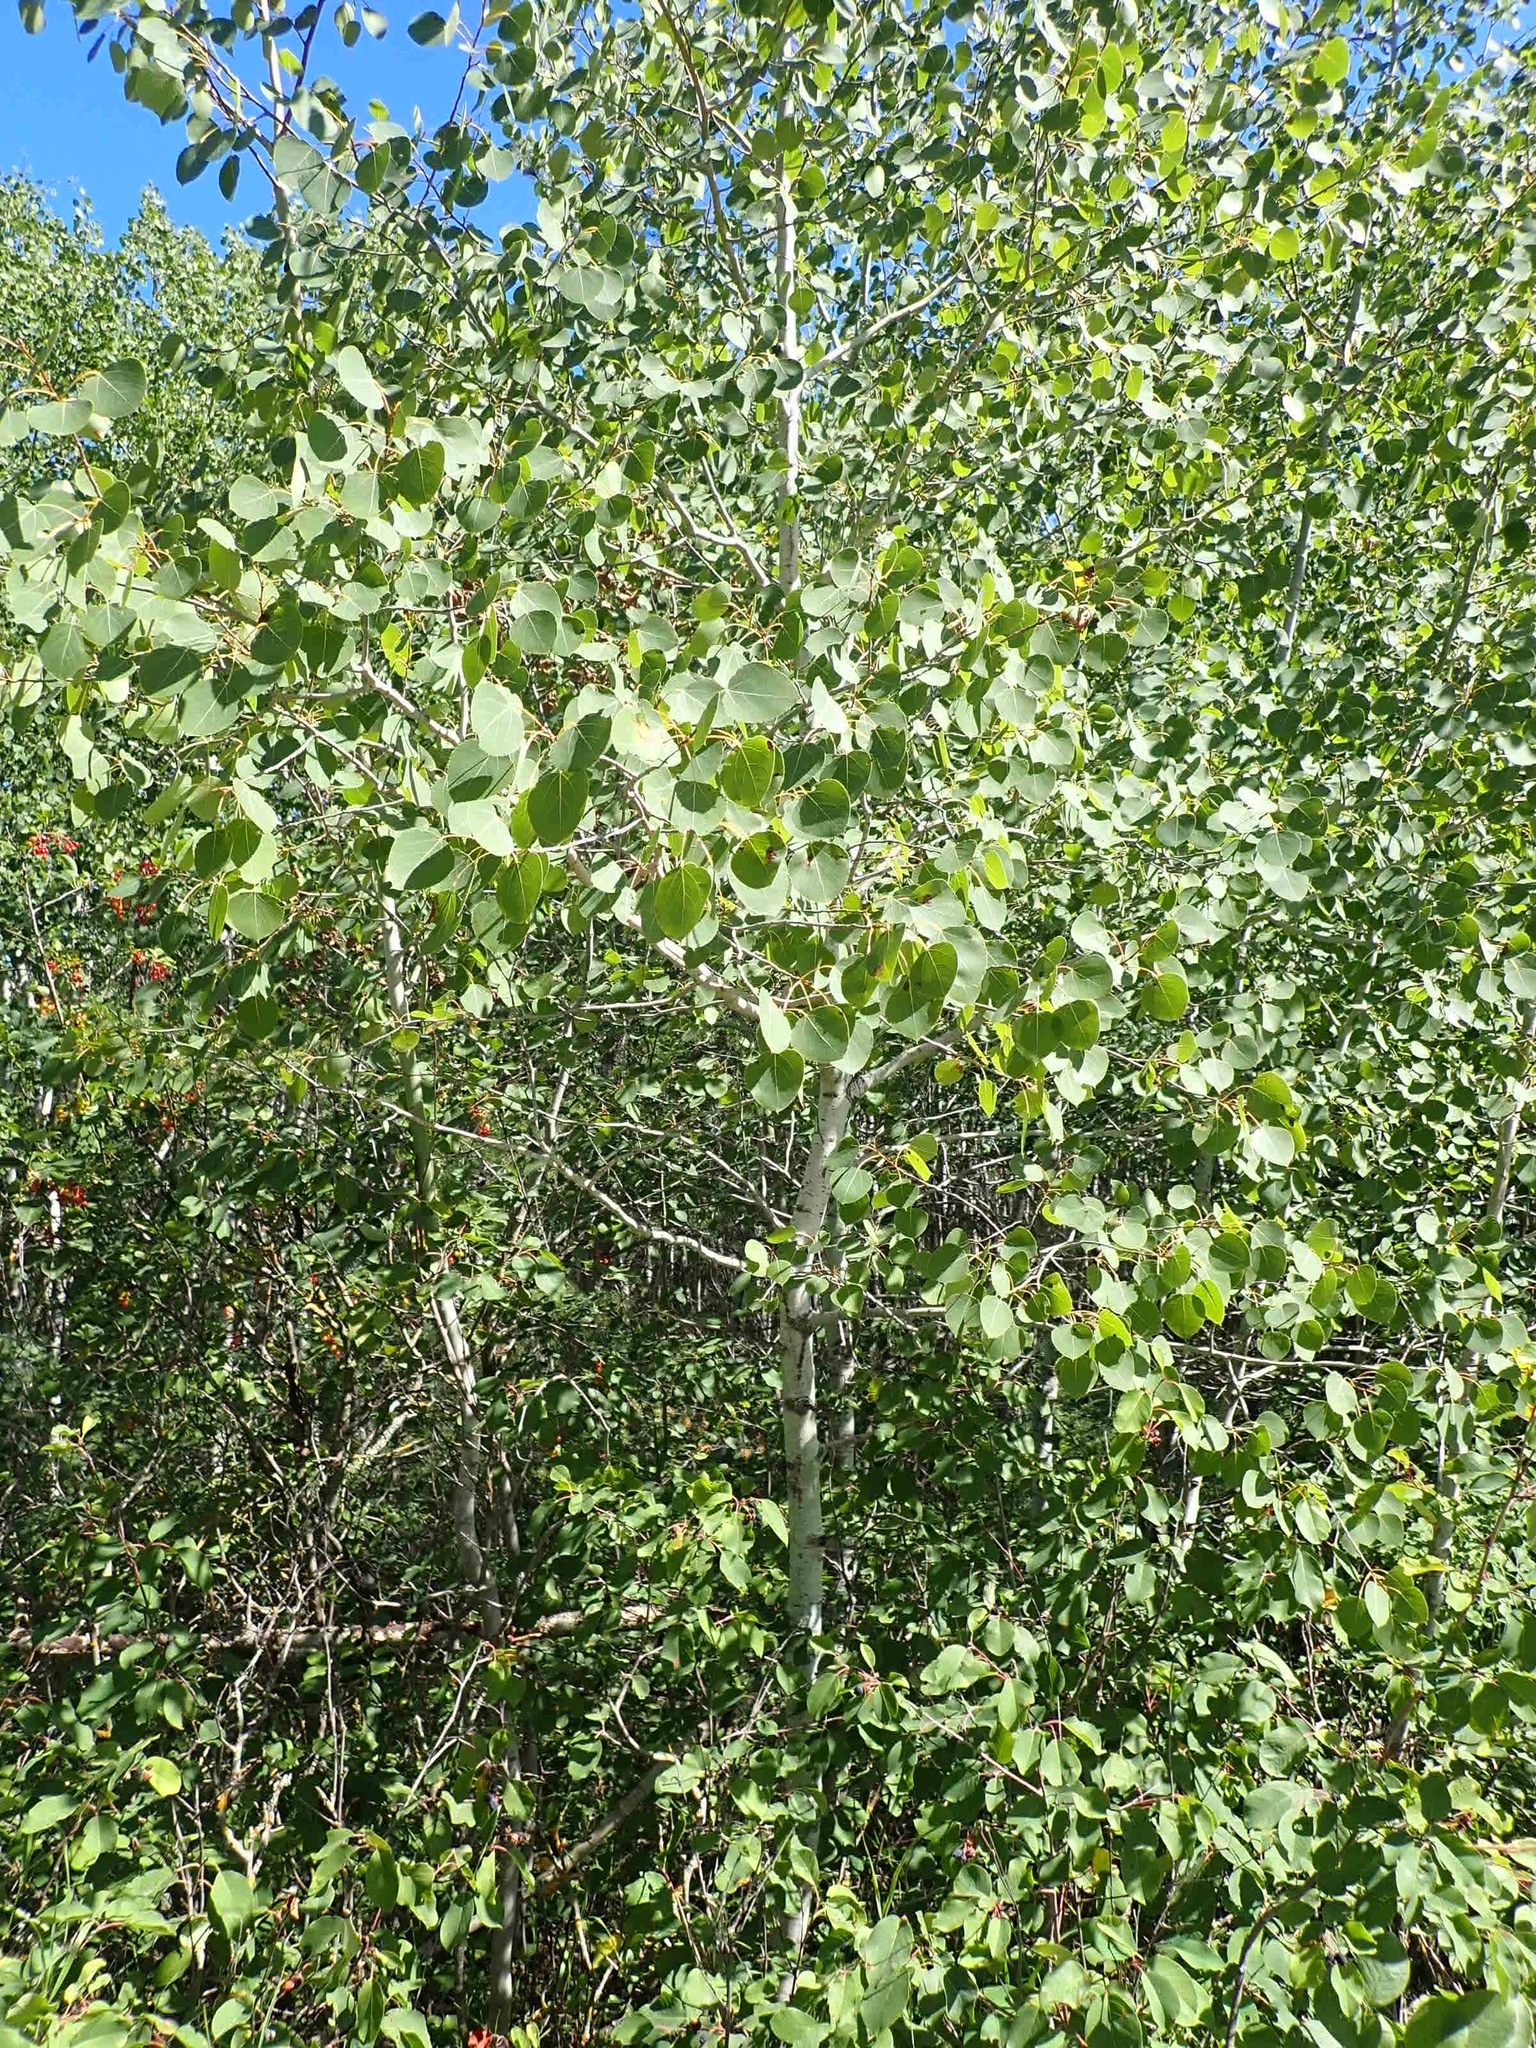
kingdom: Plantae
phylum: Tracheophyta
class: Magnoliopsida
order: Malpighiales
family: Salicaceae
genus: Populus
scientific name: Populus tremuloides
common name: Quaking aspen
